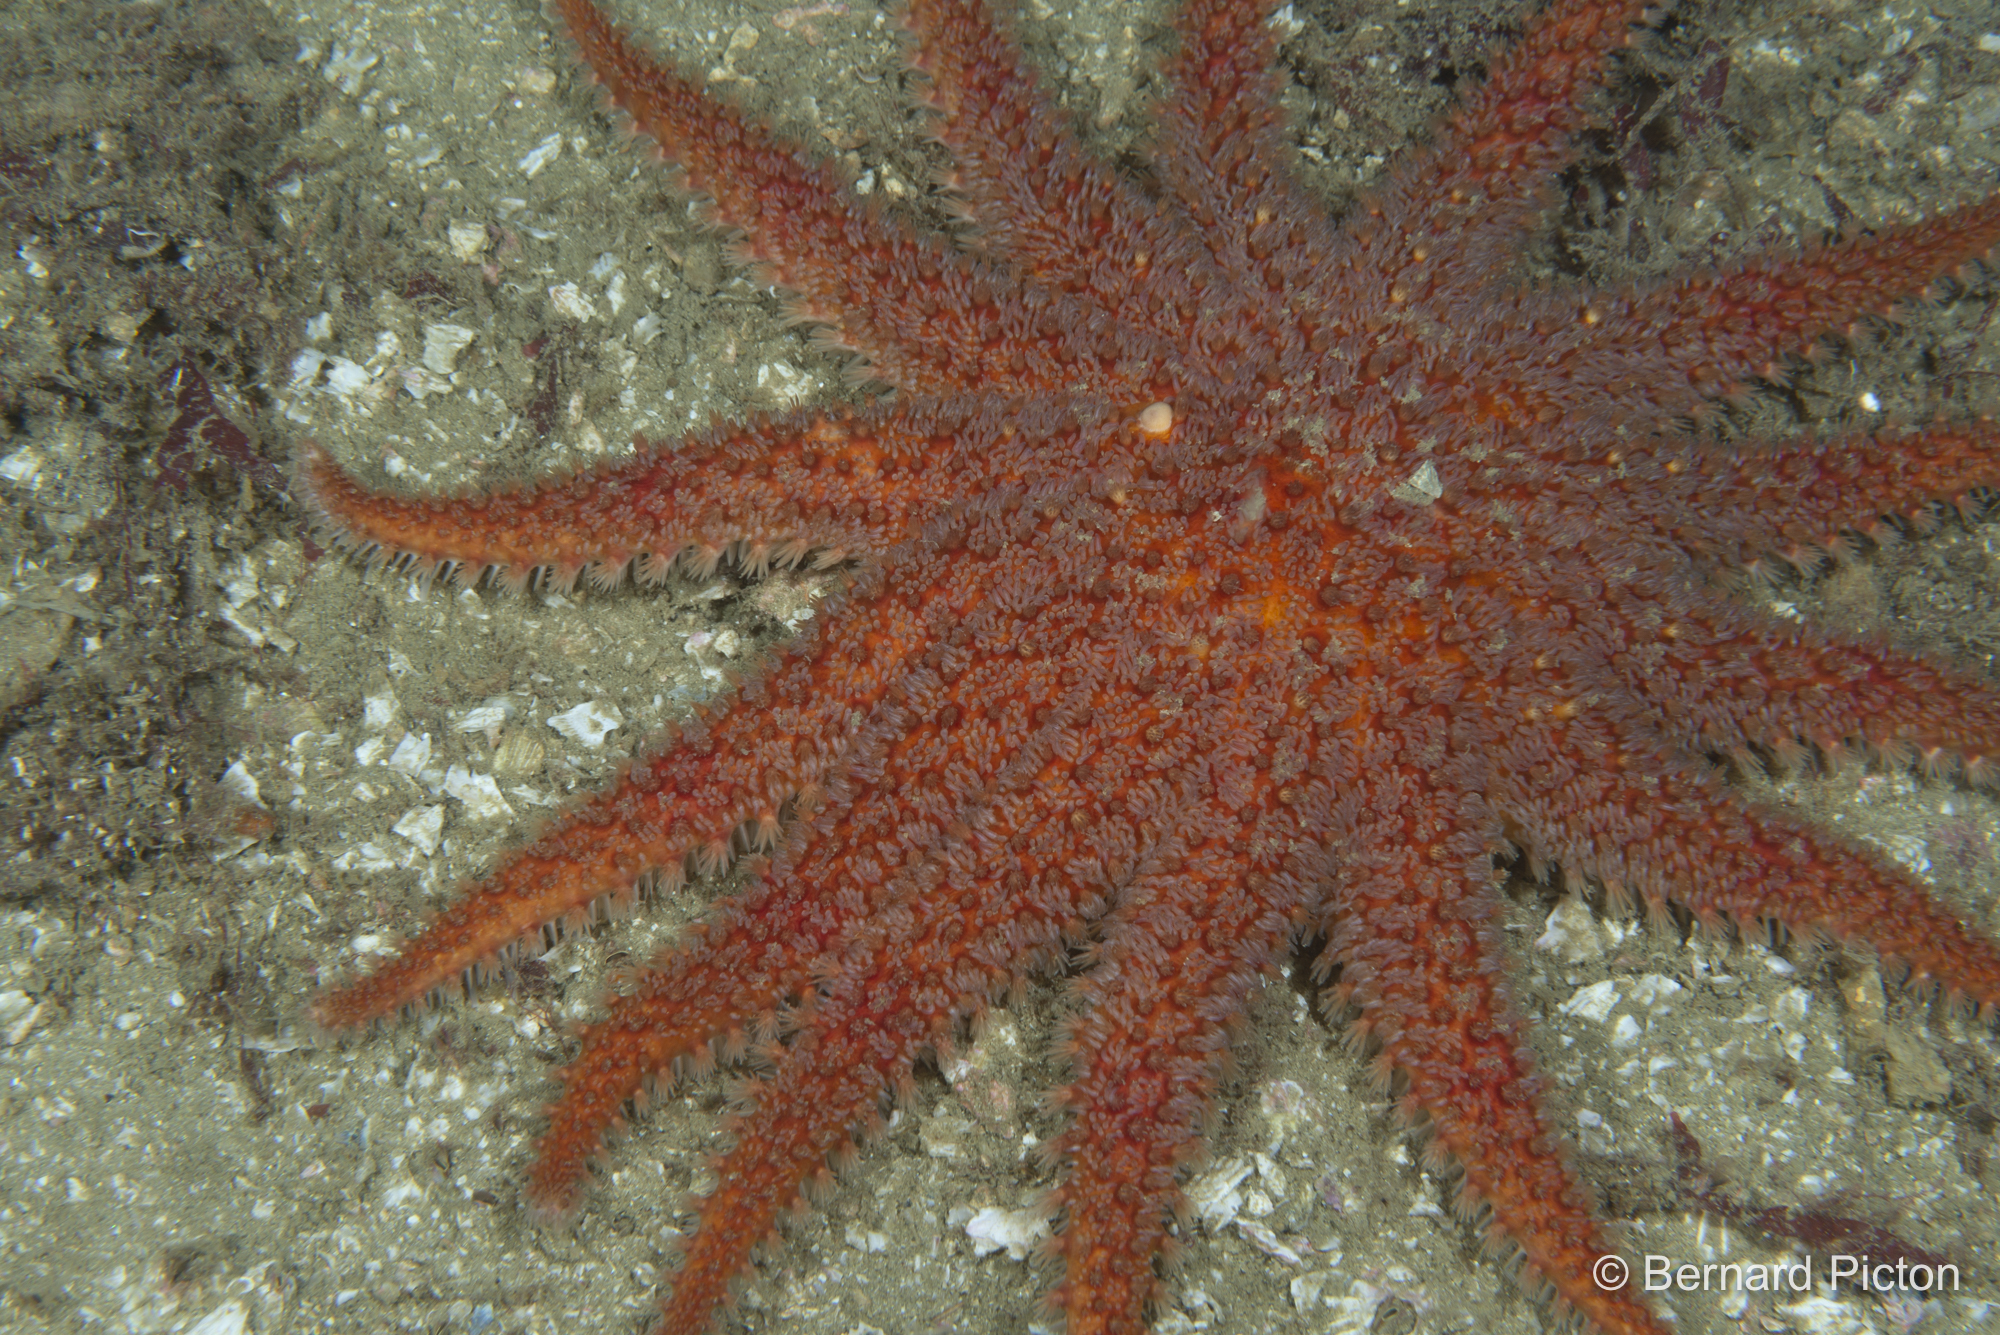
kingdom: Animalia
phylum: Echinodermata
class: Asteroidea
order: Valvatida
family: Solasteridae
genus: Crossaster
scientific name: Crossaster papposus
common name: Common sun star
